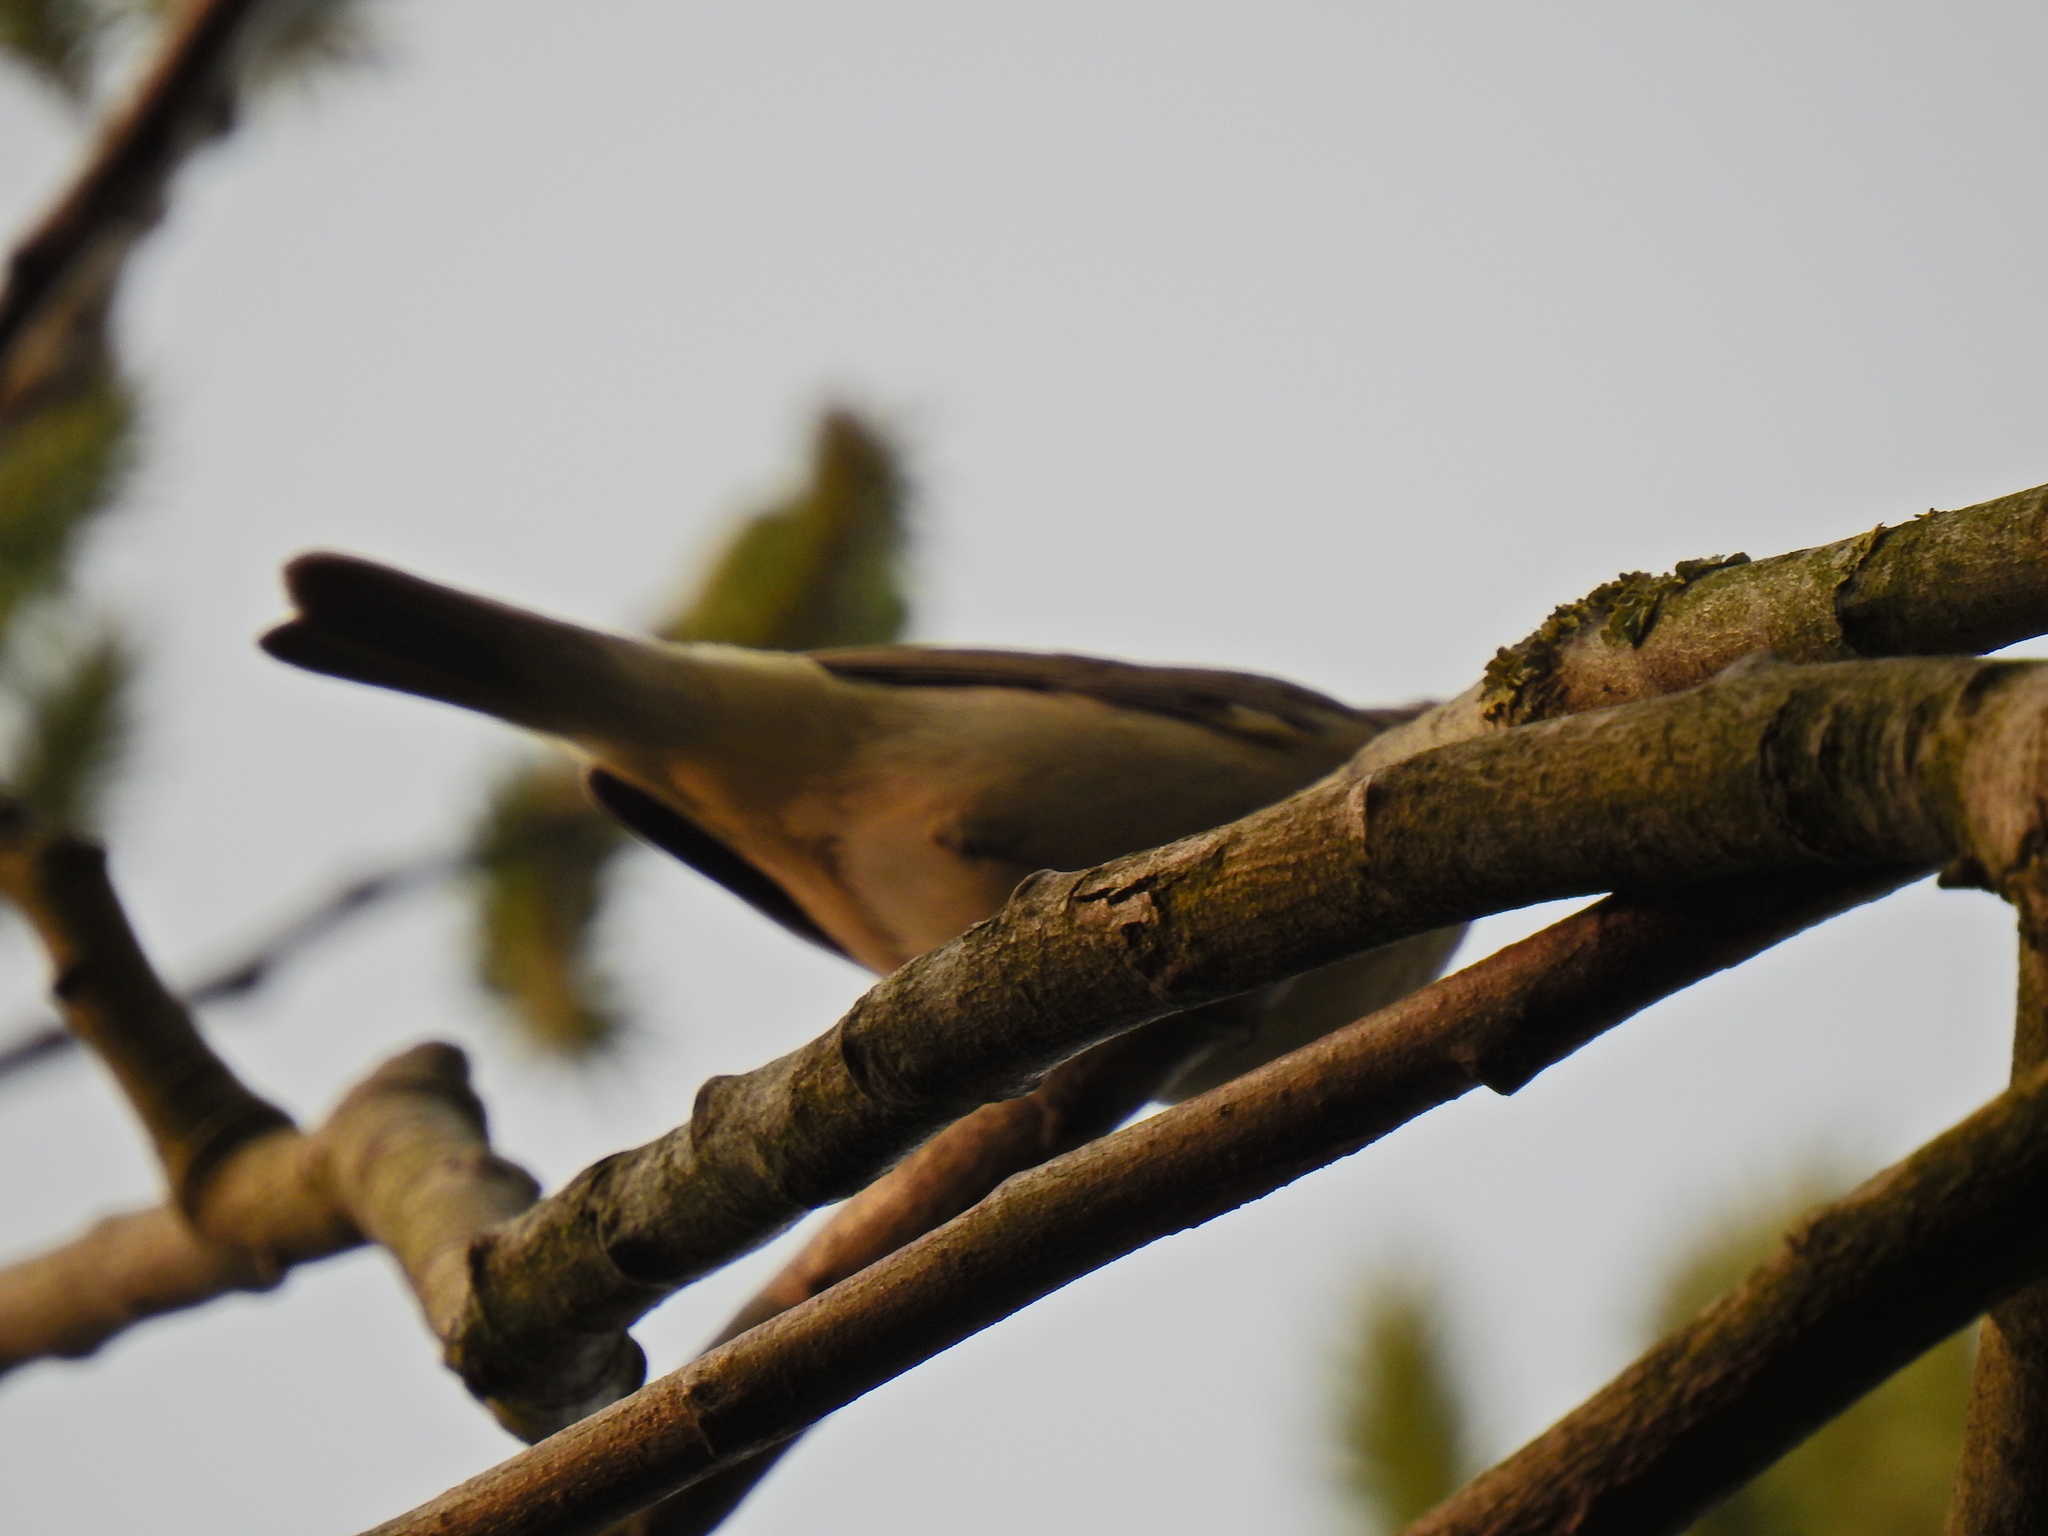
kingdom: Animalia
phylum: Chordata
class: Aves
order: Passeriformes
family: Phylloscopidae
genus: Phylloscopus
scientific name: Phylloscopus collybita
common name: Common chiffchaff
